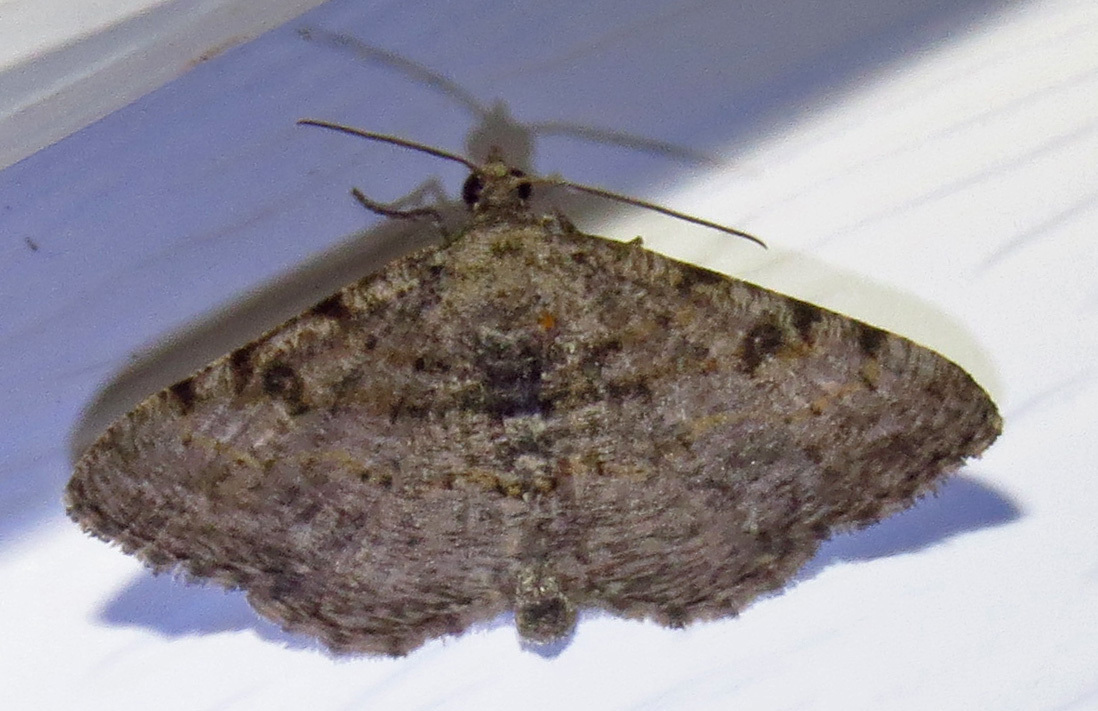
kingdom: Animalia
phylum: Arthropoda
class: Insecta
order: Lepidoptera
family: Geometridae
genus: Digrammia
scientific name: Digrammia gnophosaria
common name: Hollow-spotted angle
